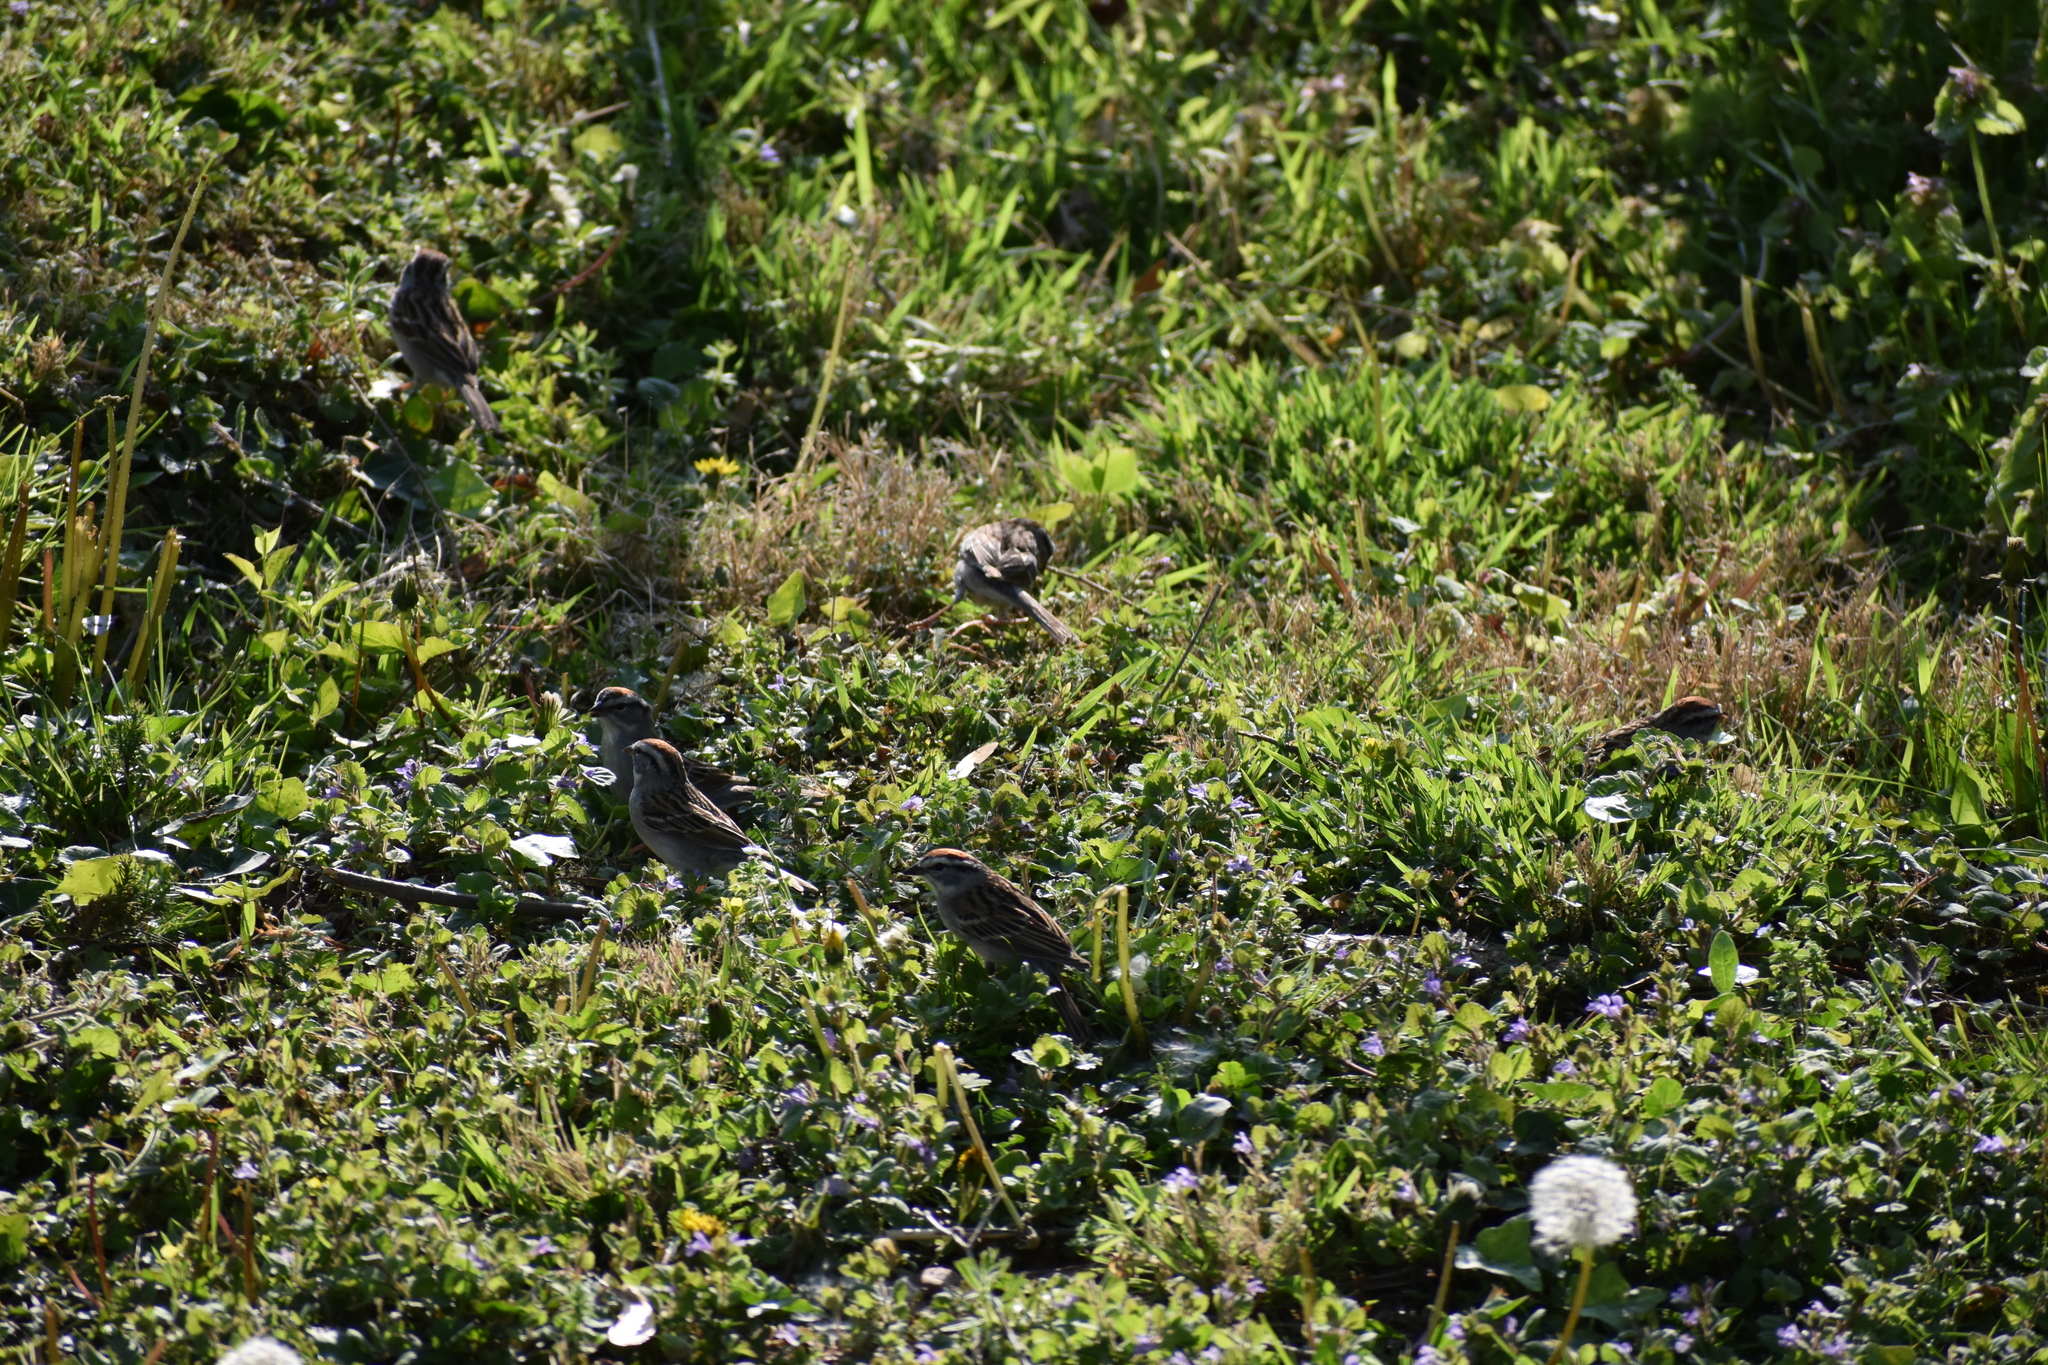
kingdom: Animalia
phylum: Chordata
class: Aves
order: Passeriformes
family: Passerellidae
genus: Spizella
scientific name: Spizella passerina
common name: Chipping sparrow
